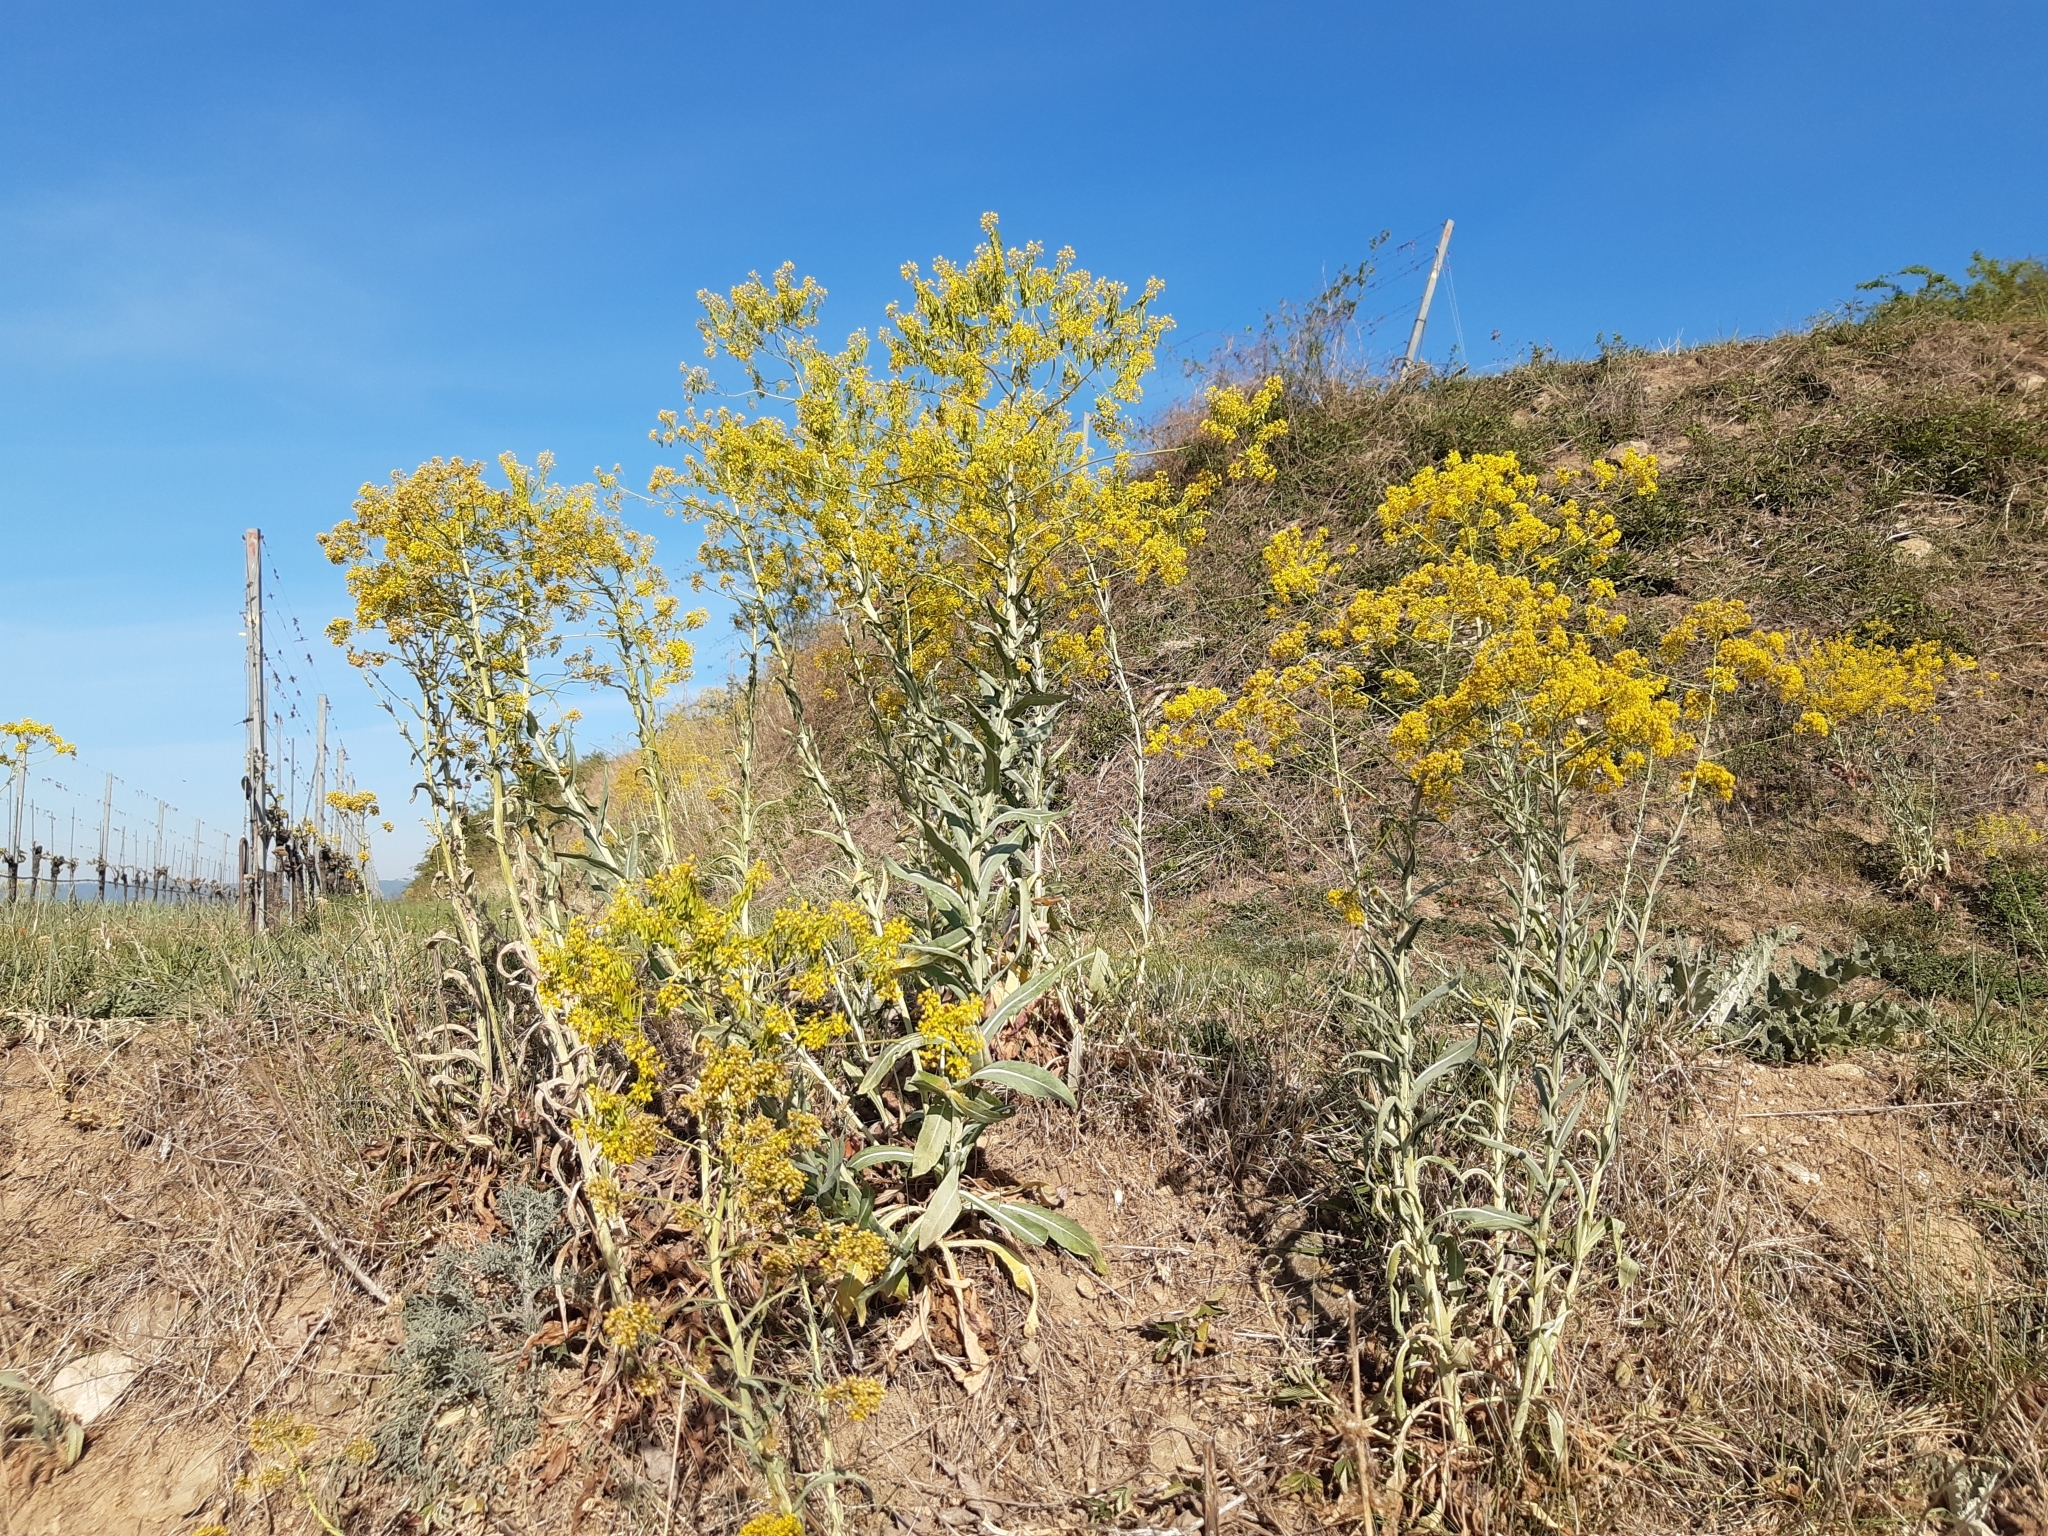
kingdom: Plantae
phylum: Tracheophyta
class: Magnoliopsida
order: Brassicales
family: Brassicaceae
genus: Isatis
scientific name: Isatis tinctoria
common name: Woad
